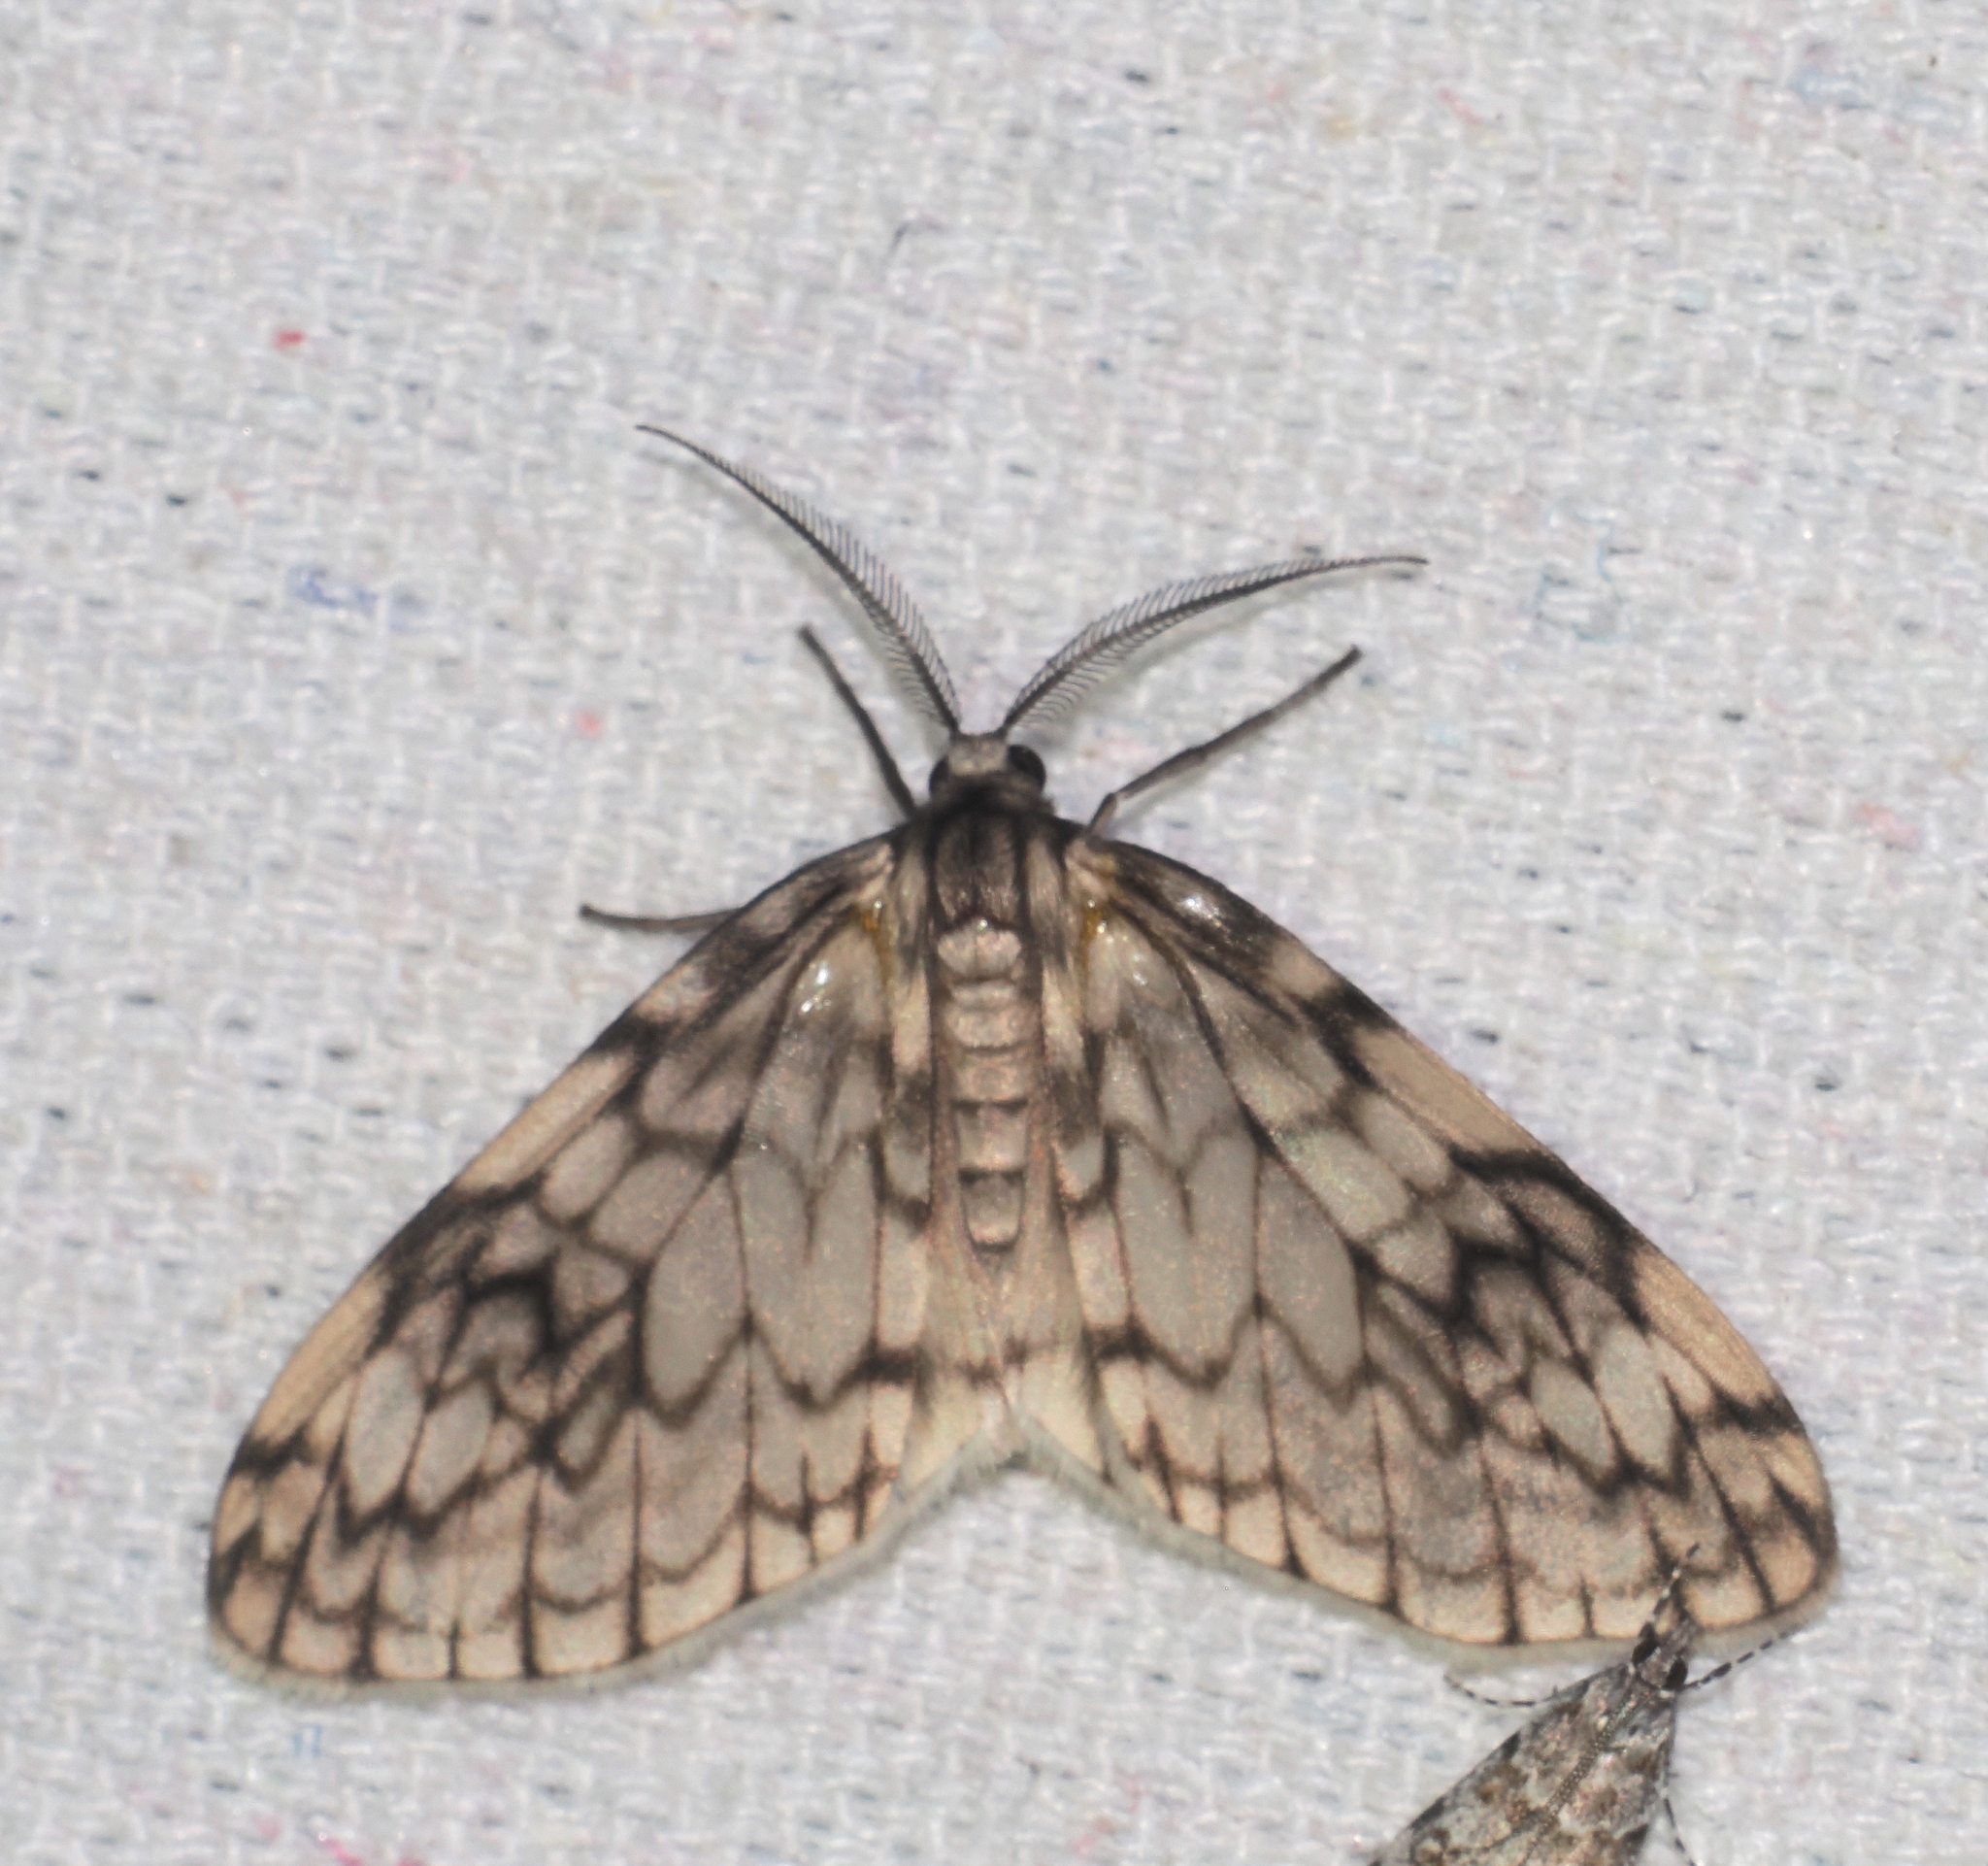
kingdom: Animalia
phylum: Arthropoda
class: Insecta
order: Lepidoptera
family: Geometridae
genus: Parallage
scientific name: Parallage diaphanata
